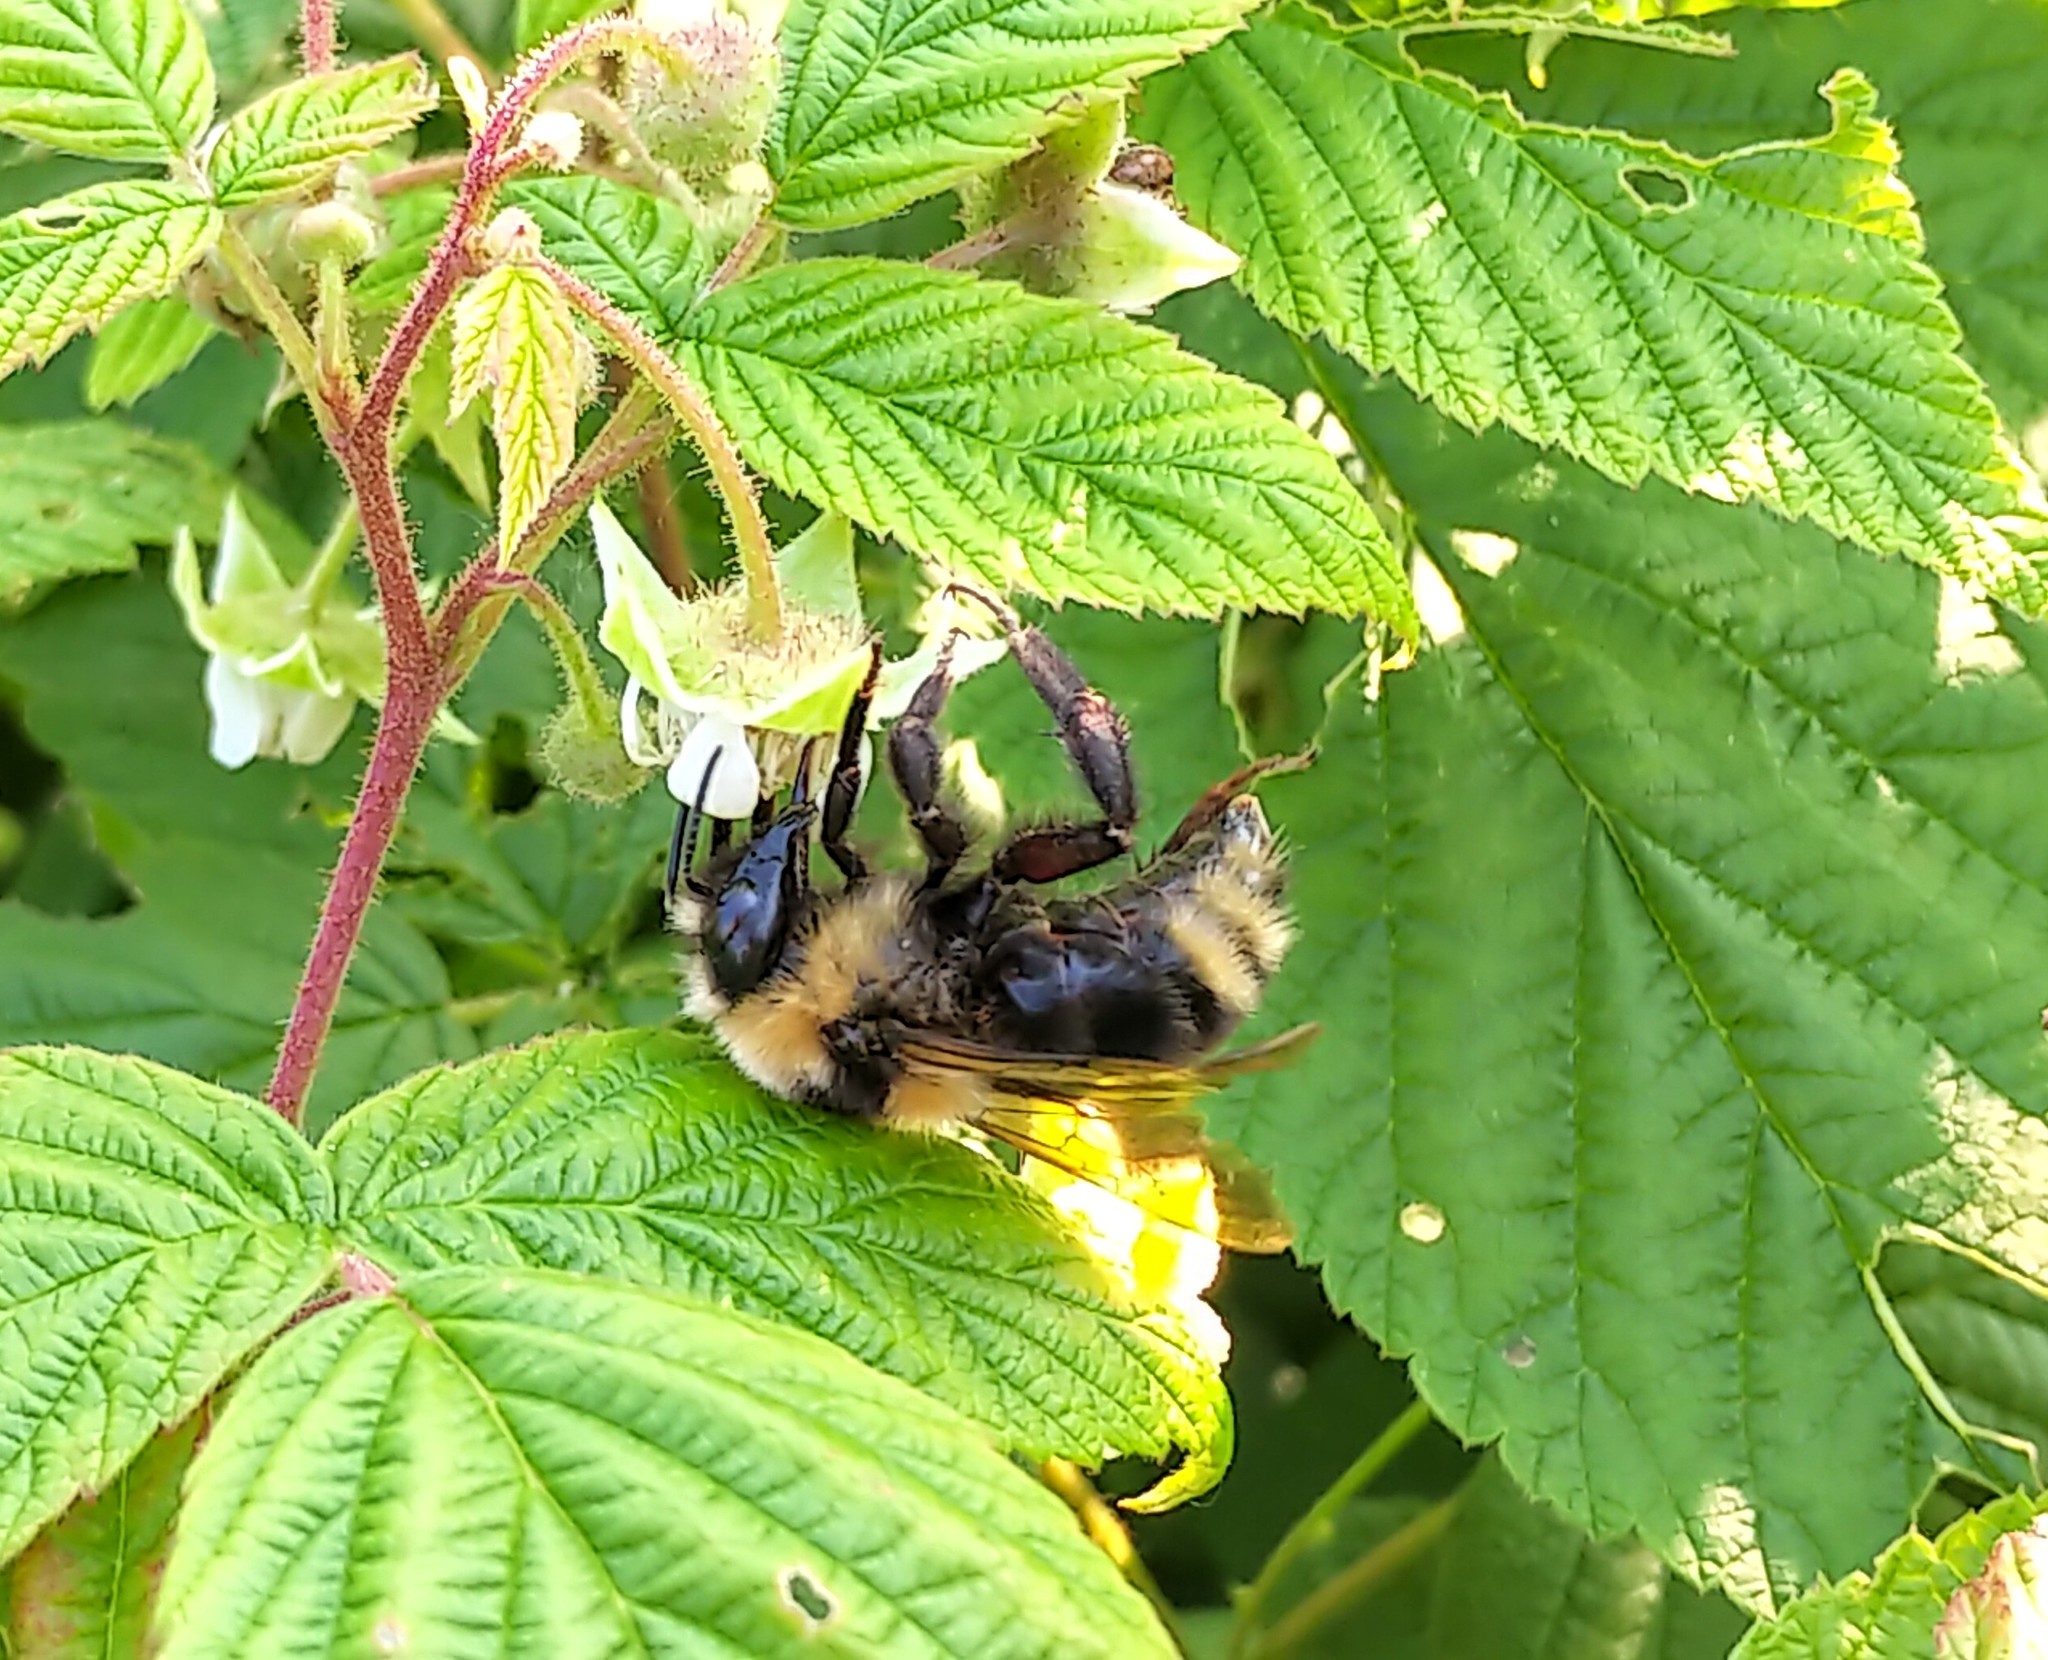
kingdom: Animalia
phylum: Arthropoda
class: Insecta
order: Hymenoptera
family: Apidae
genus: Bombus
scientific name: Bombus insularis
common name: Indiscriminate cuckoo bumble bee
